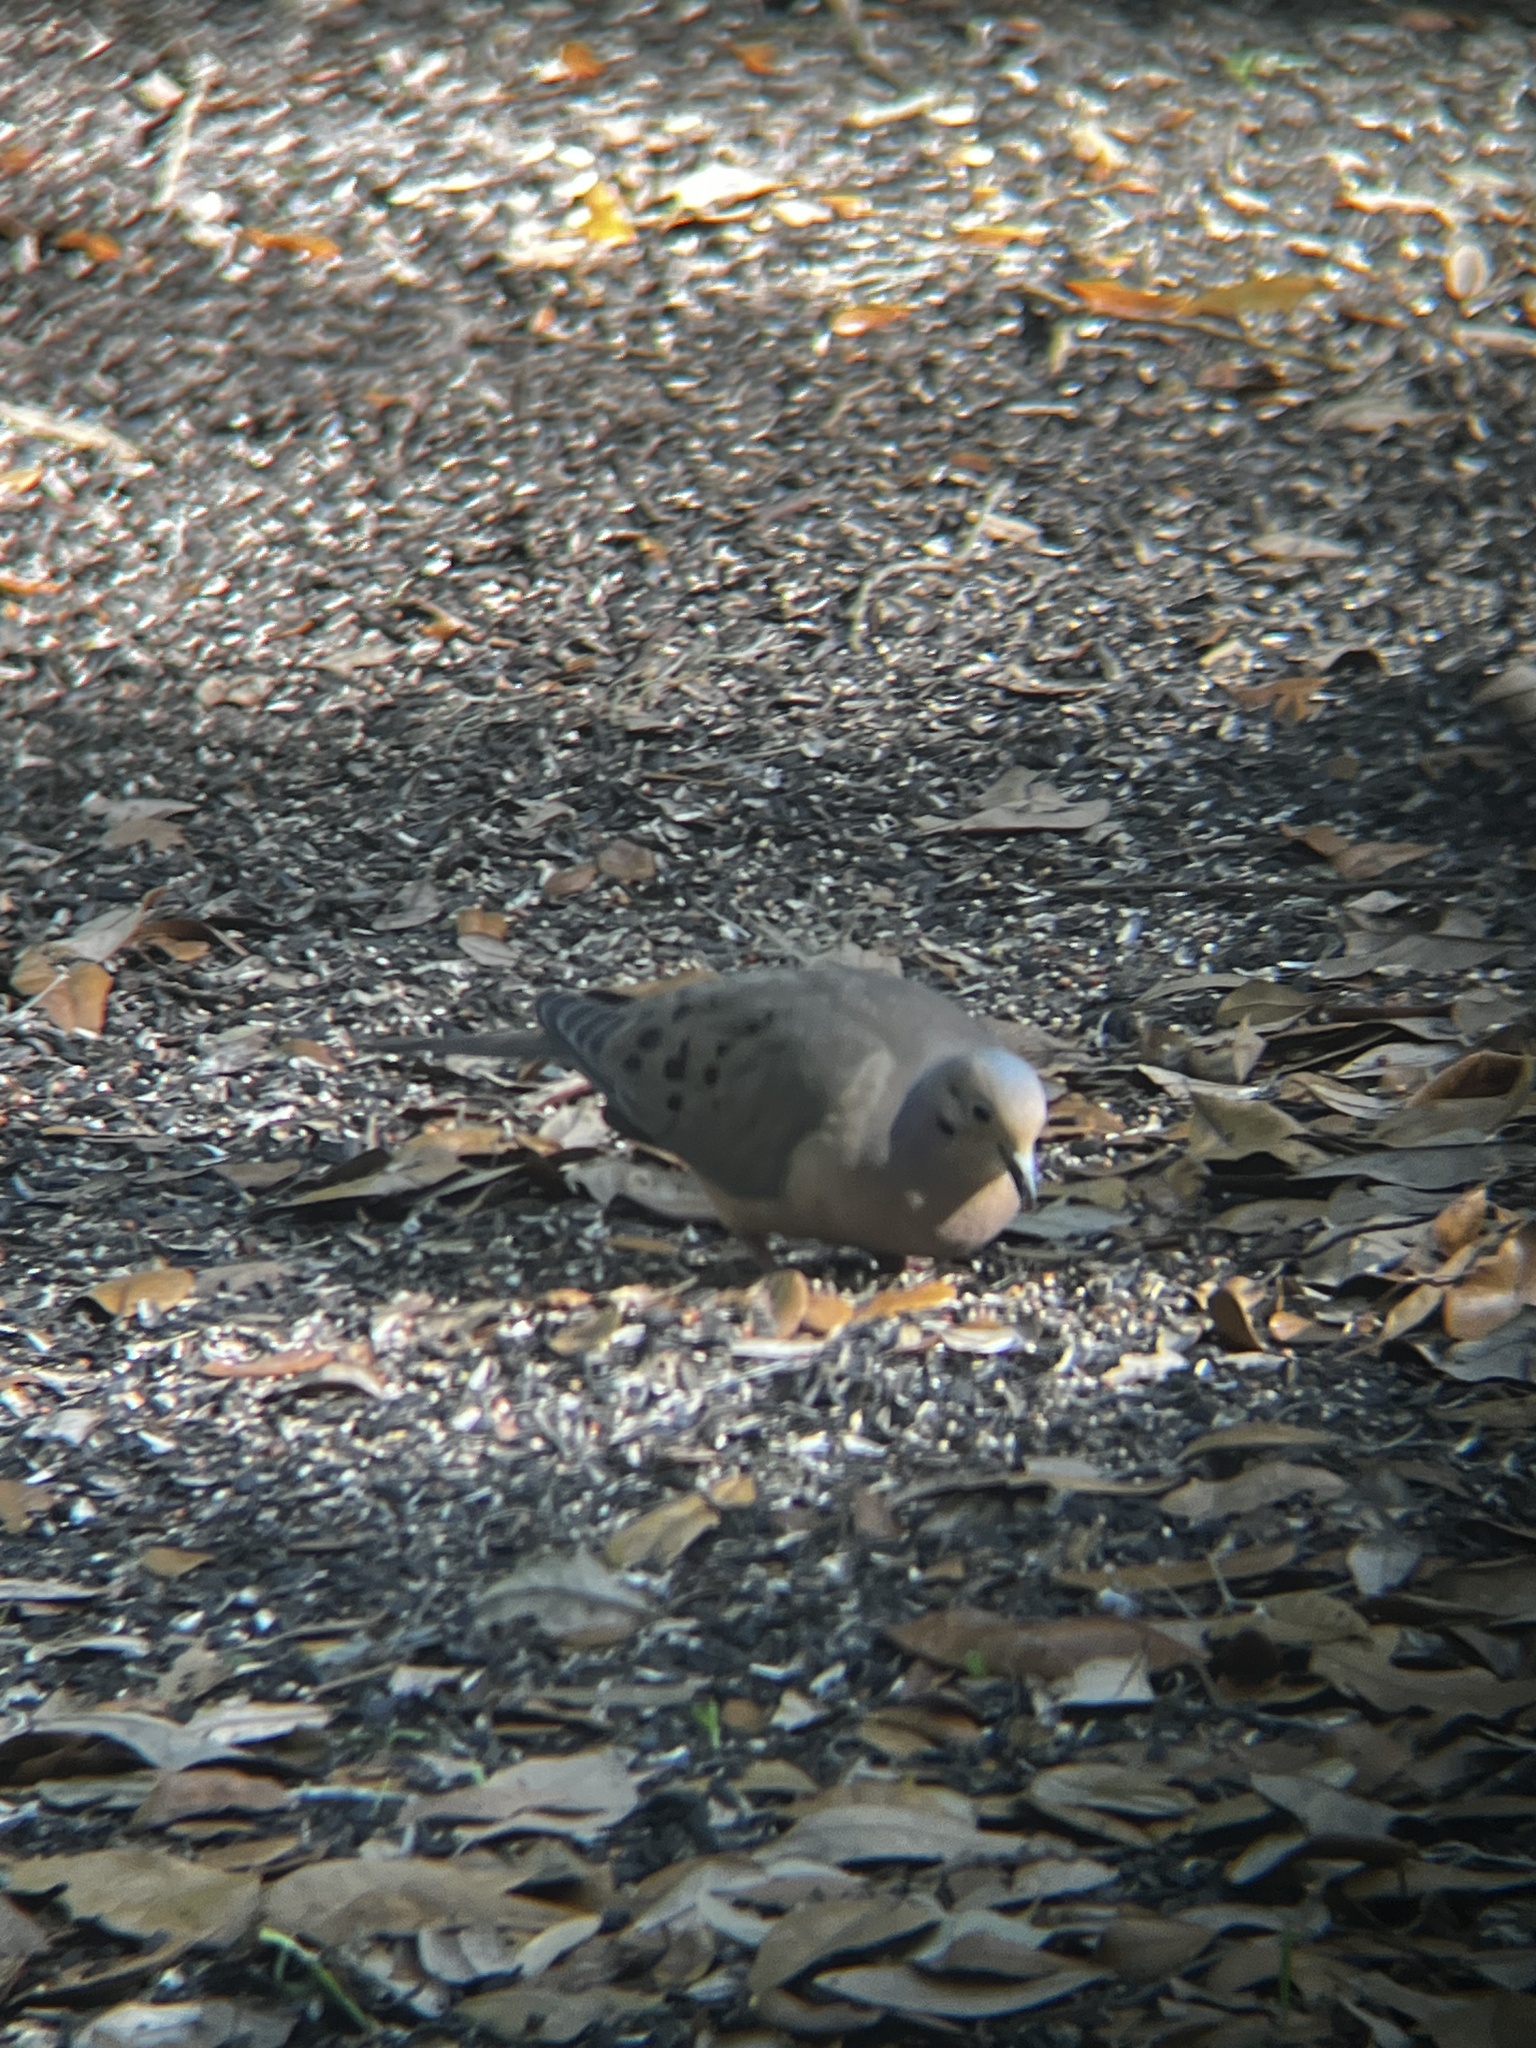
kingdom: Animalia
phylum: Chordata
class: Aves
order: Columbiformes
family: Columbidae
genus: Zenaida
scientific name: Zenaida macroura
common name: Mourning dove
